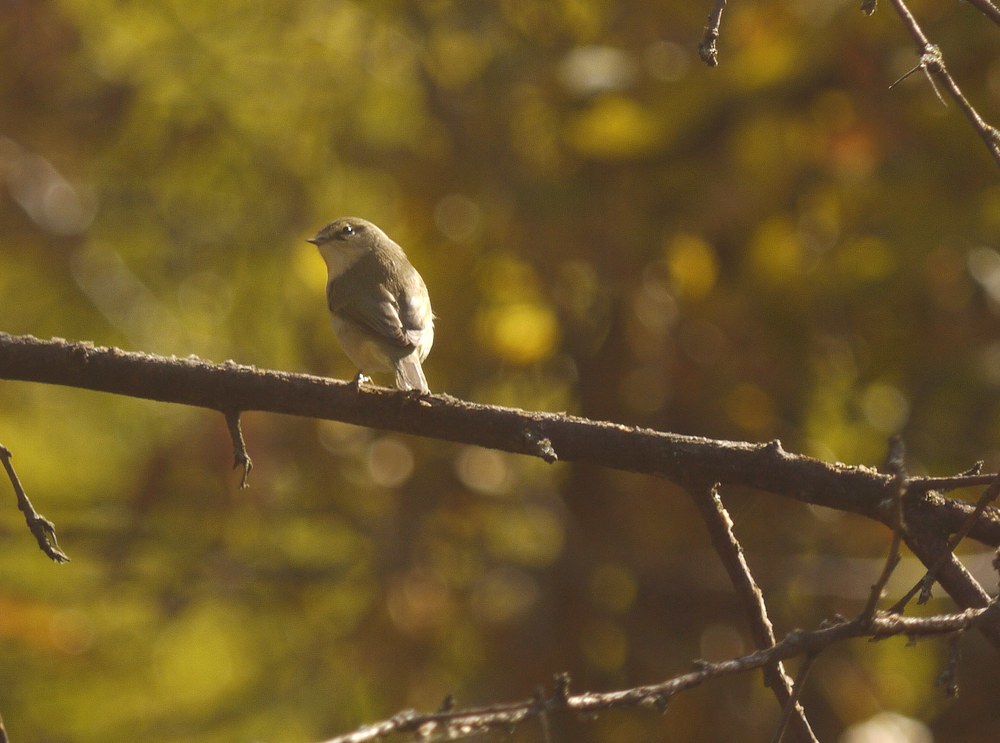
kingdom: Animalia
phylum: Chordata
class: Aves
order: Passeriformes
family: Phylloscopidae
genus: Phylloscopus
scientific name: Phylloscopus collybita
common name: Common chiffchaff
